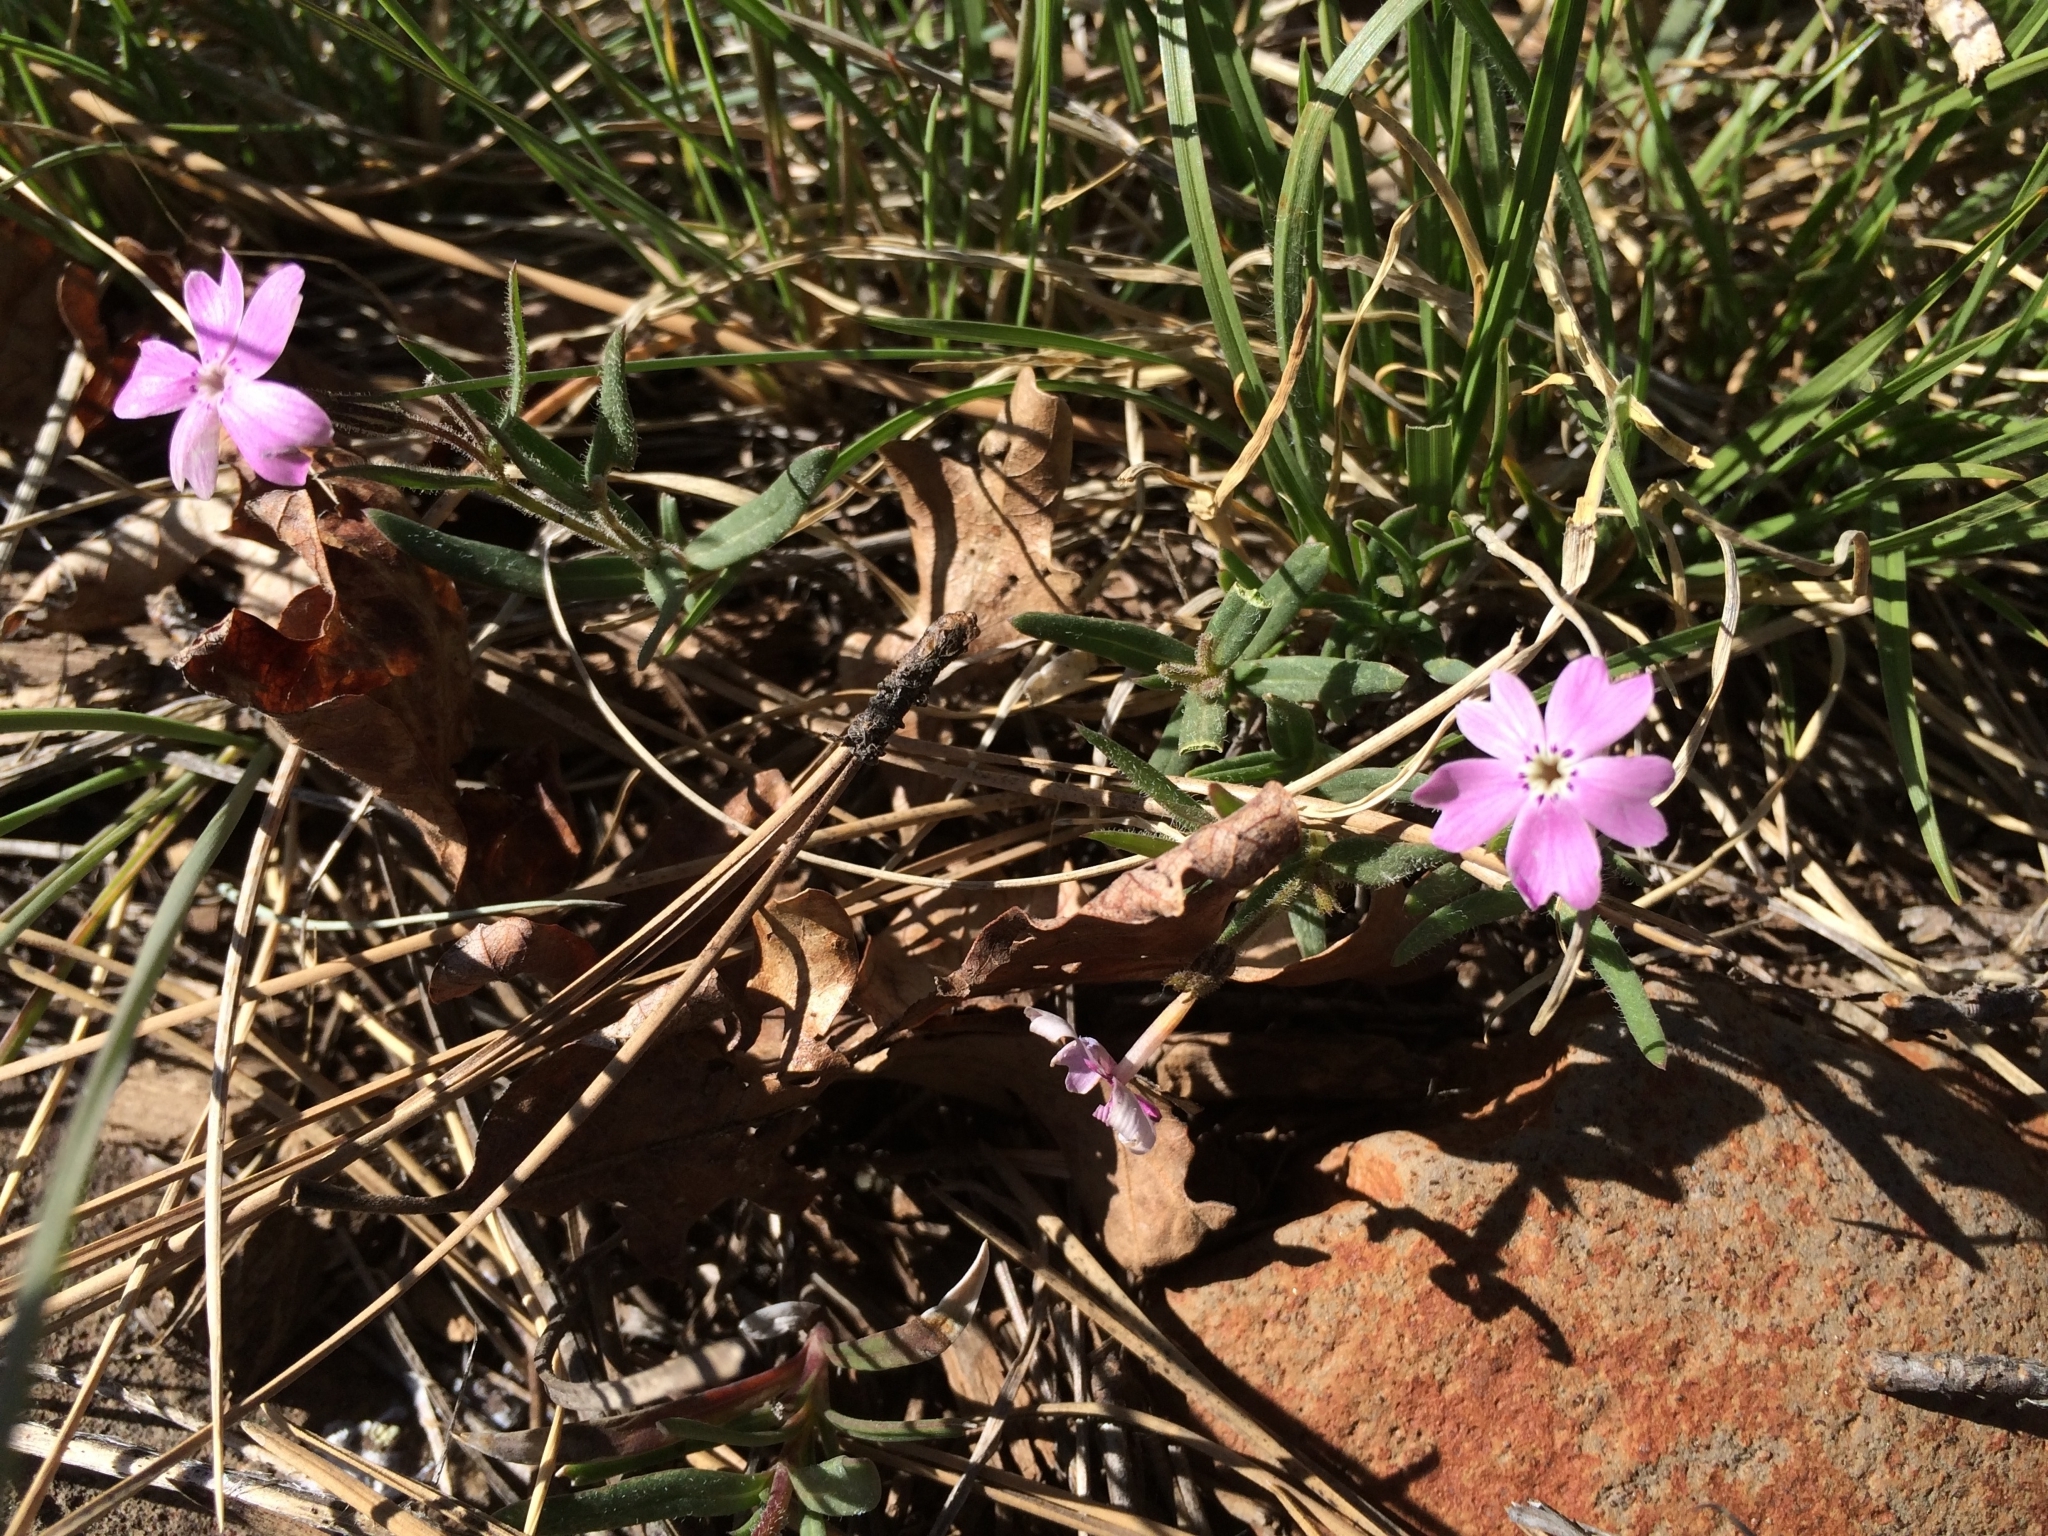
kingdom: Plantae
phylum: Tracheophyta
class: Magnoliopsida
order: Ericales
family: Polemoniaceae
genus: Phlox
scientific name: Phlox woodhousei
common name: Star phlox
